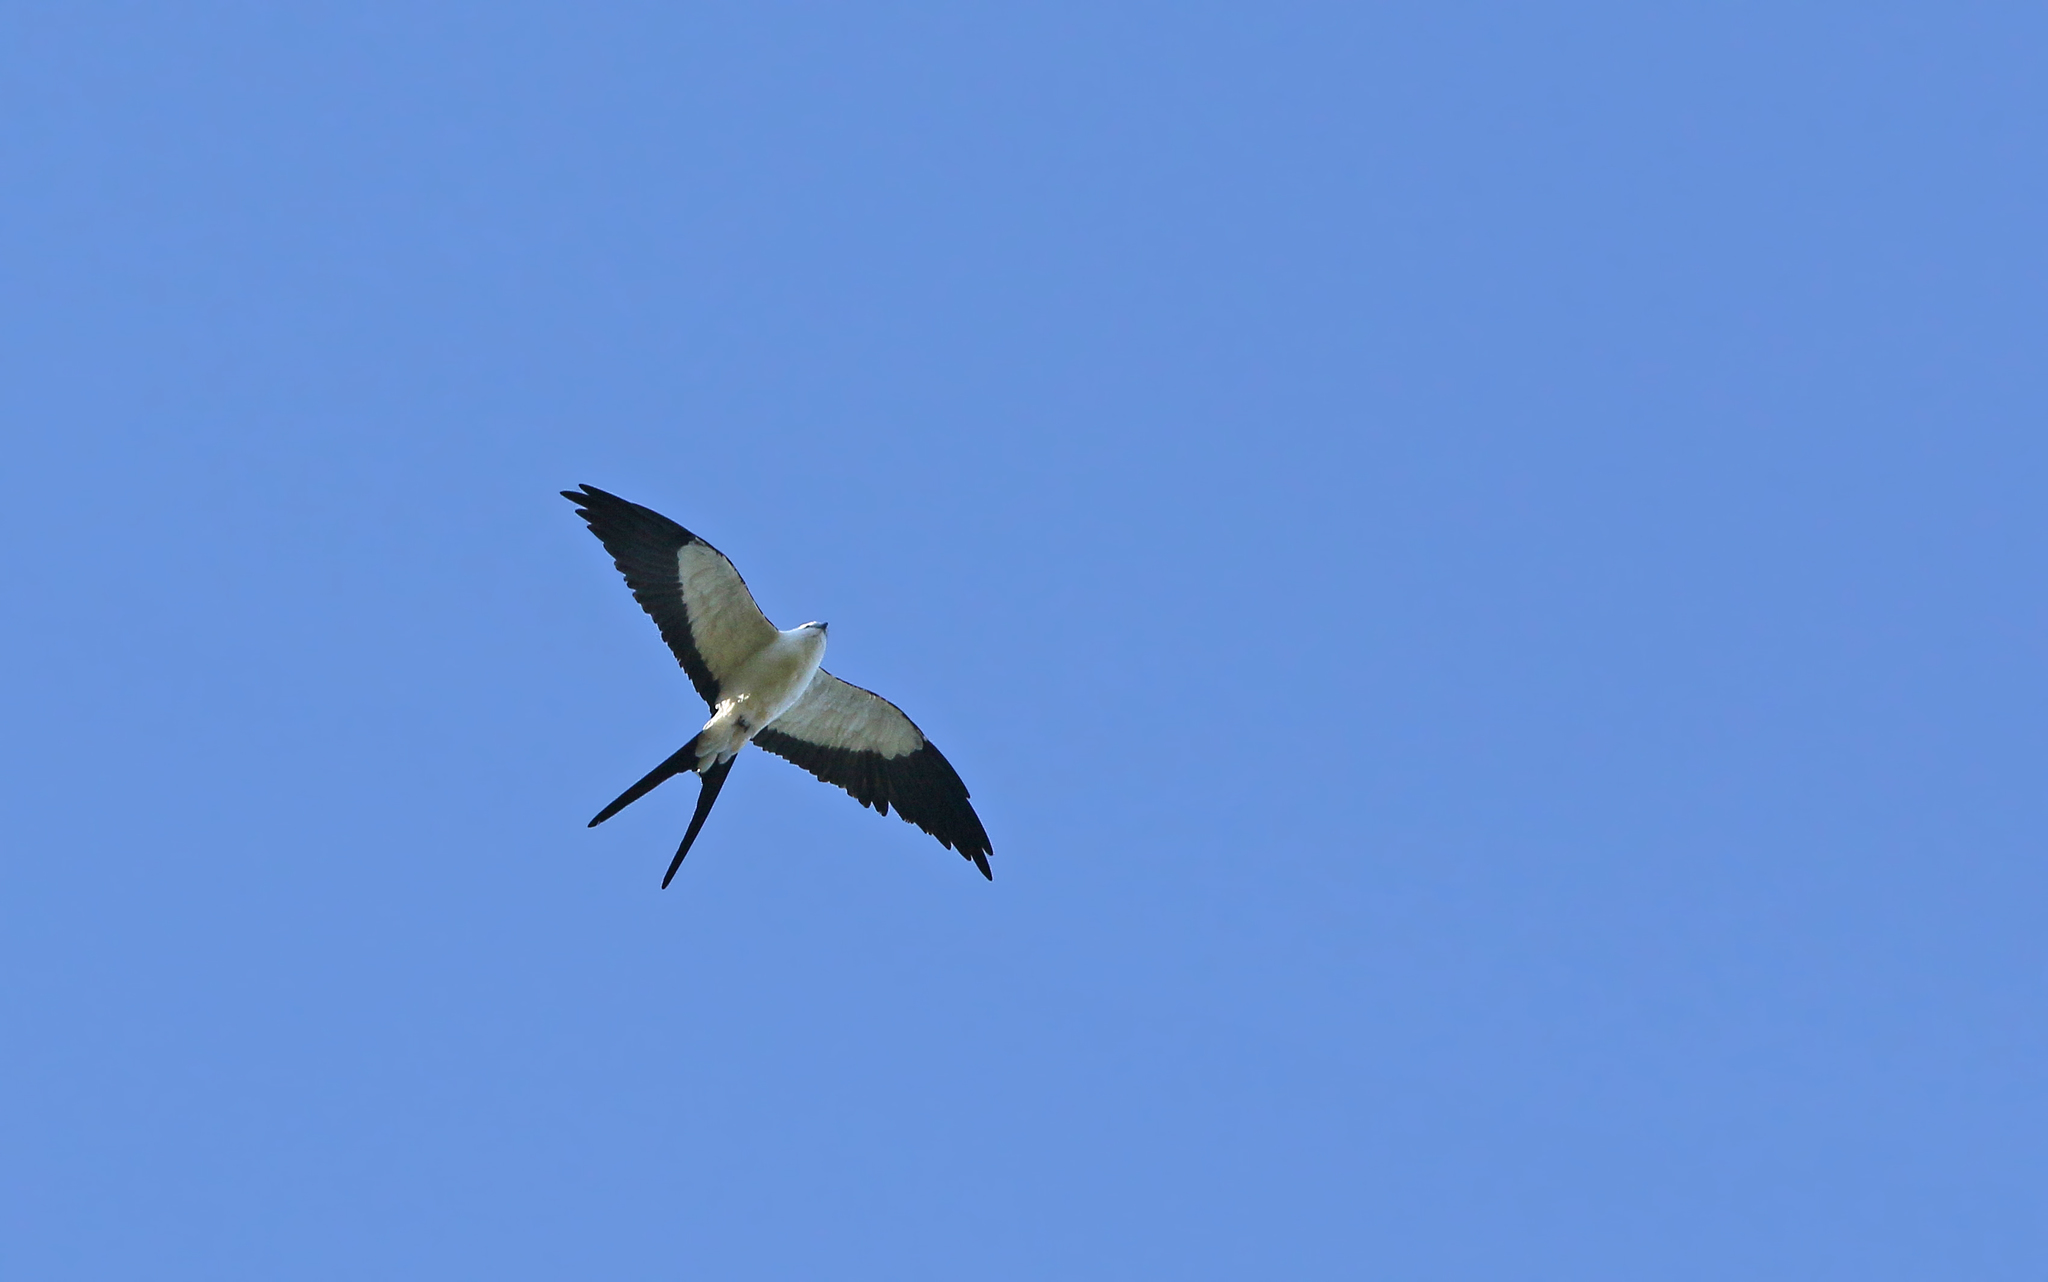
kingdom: Animalia
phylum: Chordata
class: Aves
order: Accipitriformes
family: Accipitridae
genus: Elanoides
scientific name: Elanoides forficatus
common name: Swallow-tailed kite
